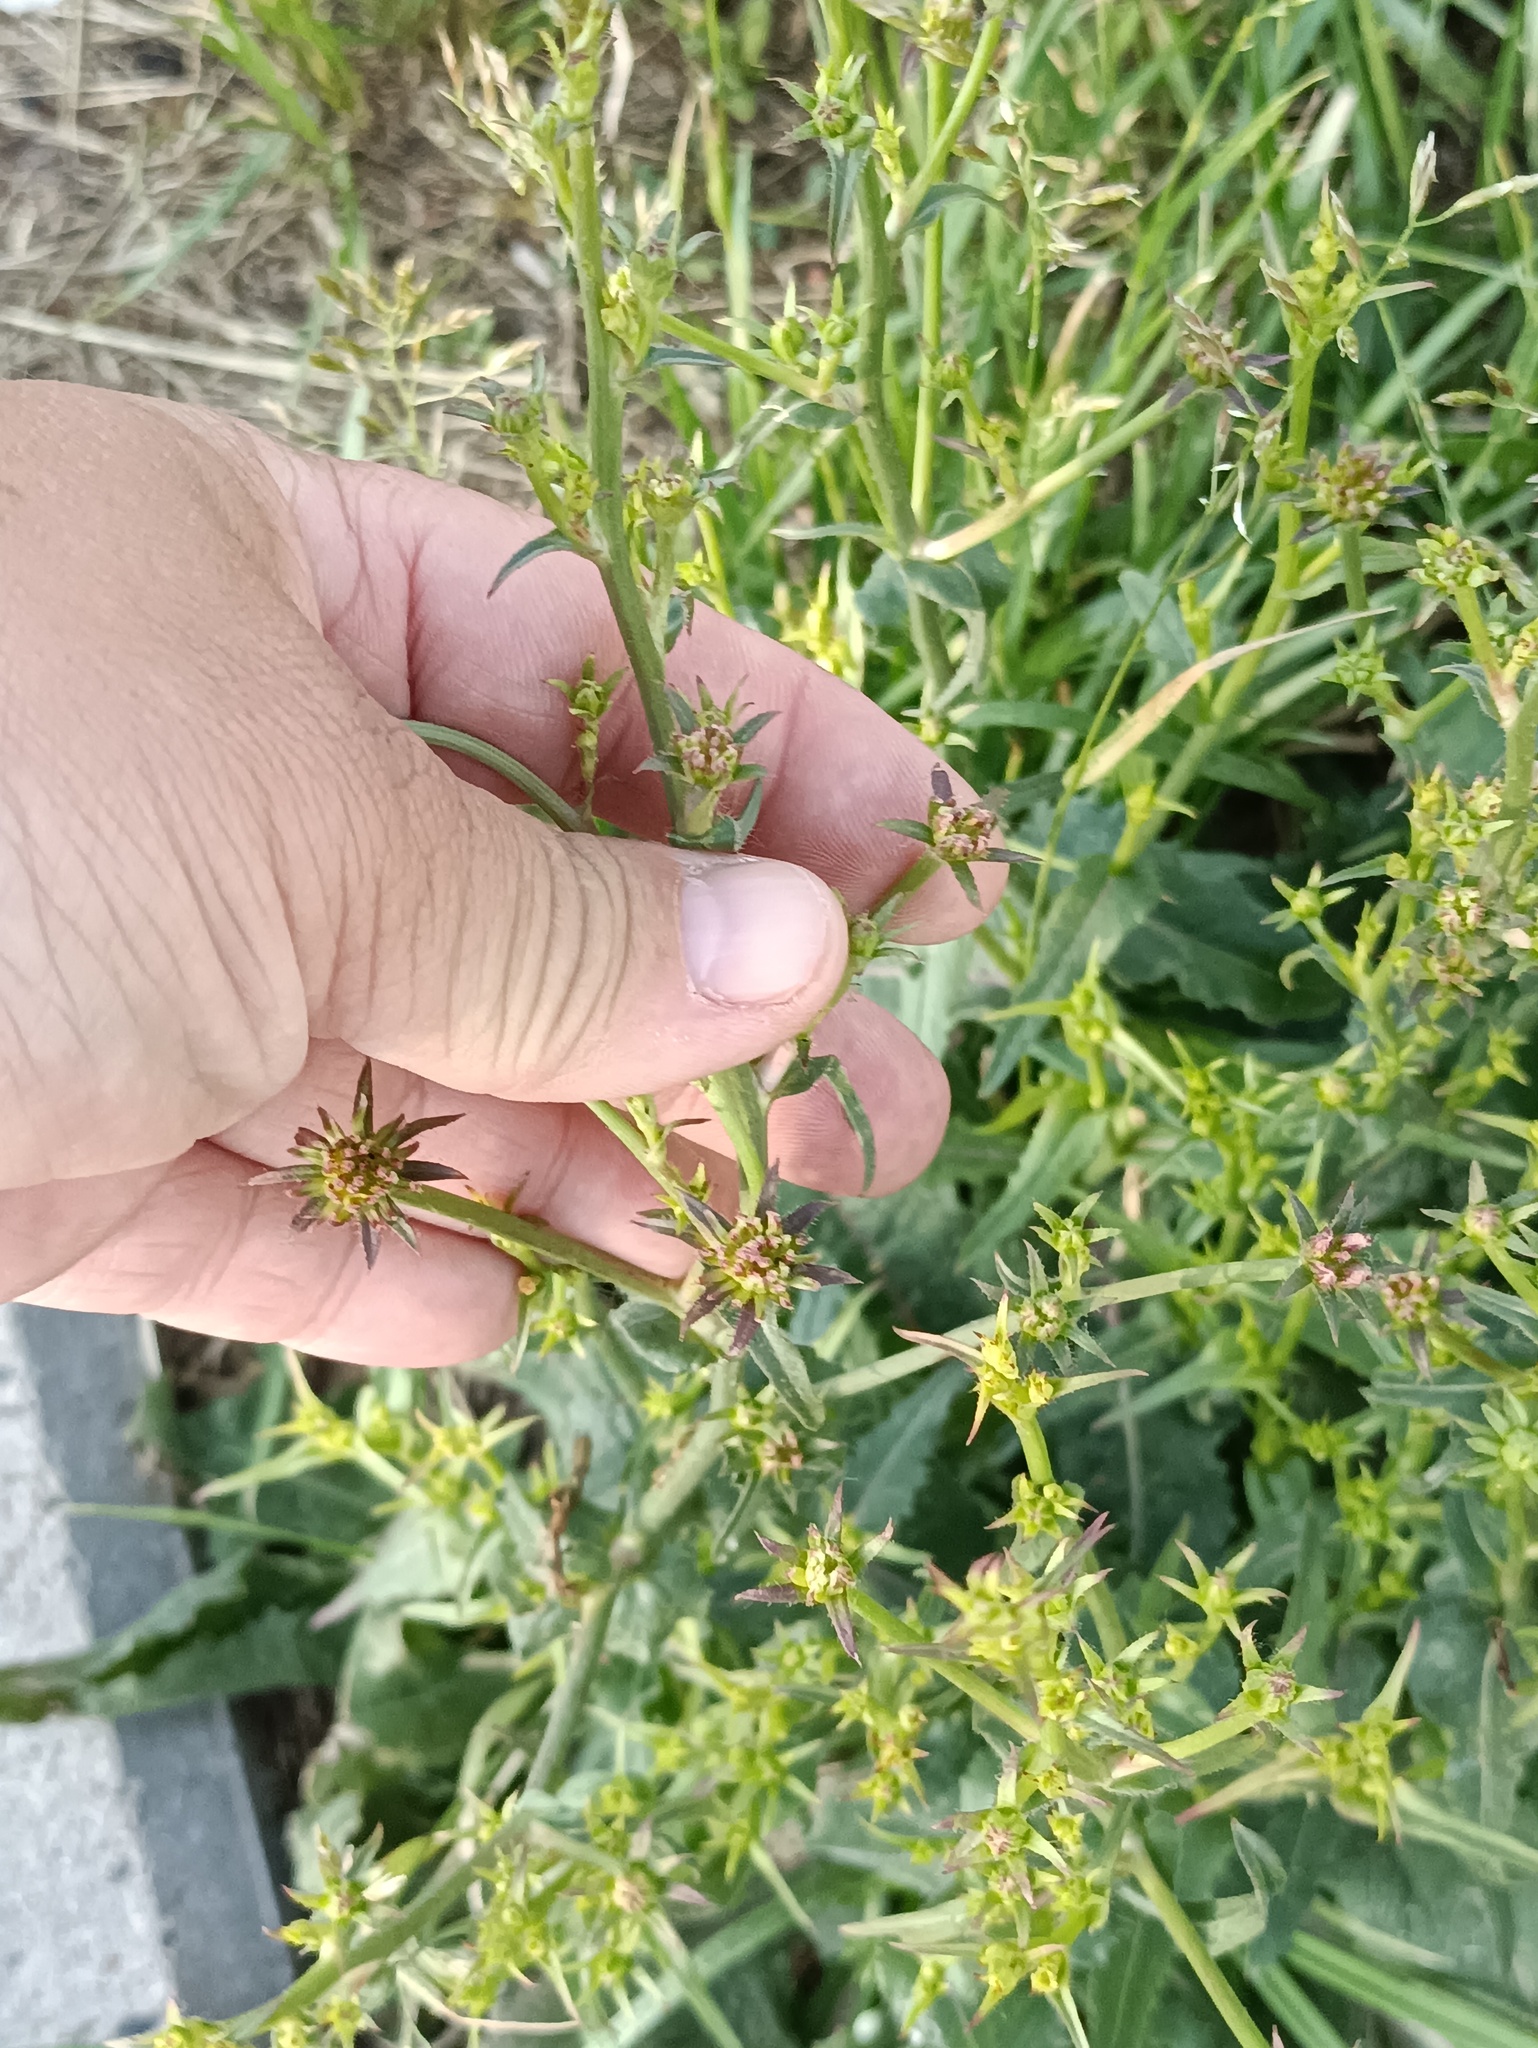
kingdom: Plantae
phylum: Tracheophyta
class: Magnoliopsida
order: Asterales
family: Asteraceae
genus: Cichorium
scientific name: Cichorium intybus
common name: Chicory
